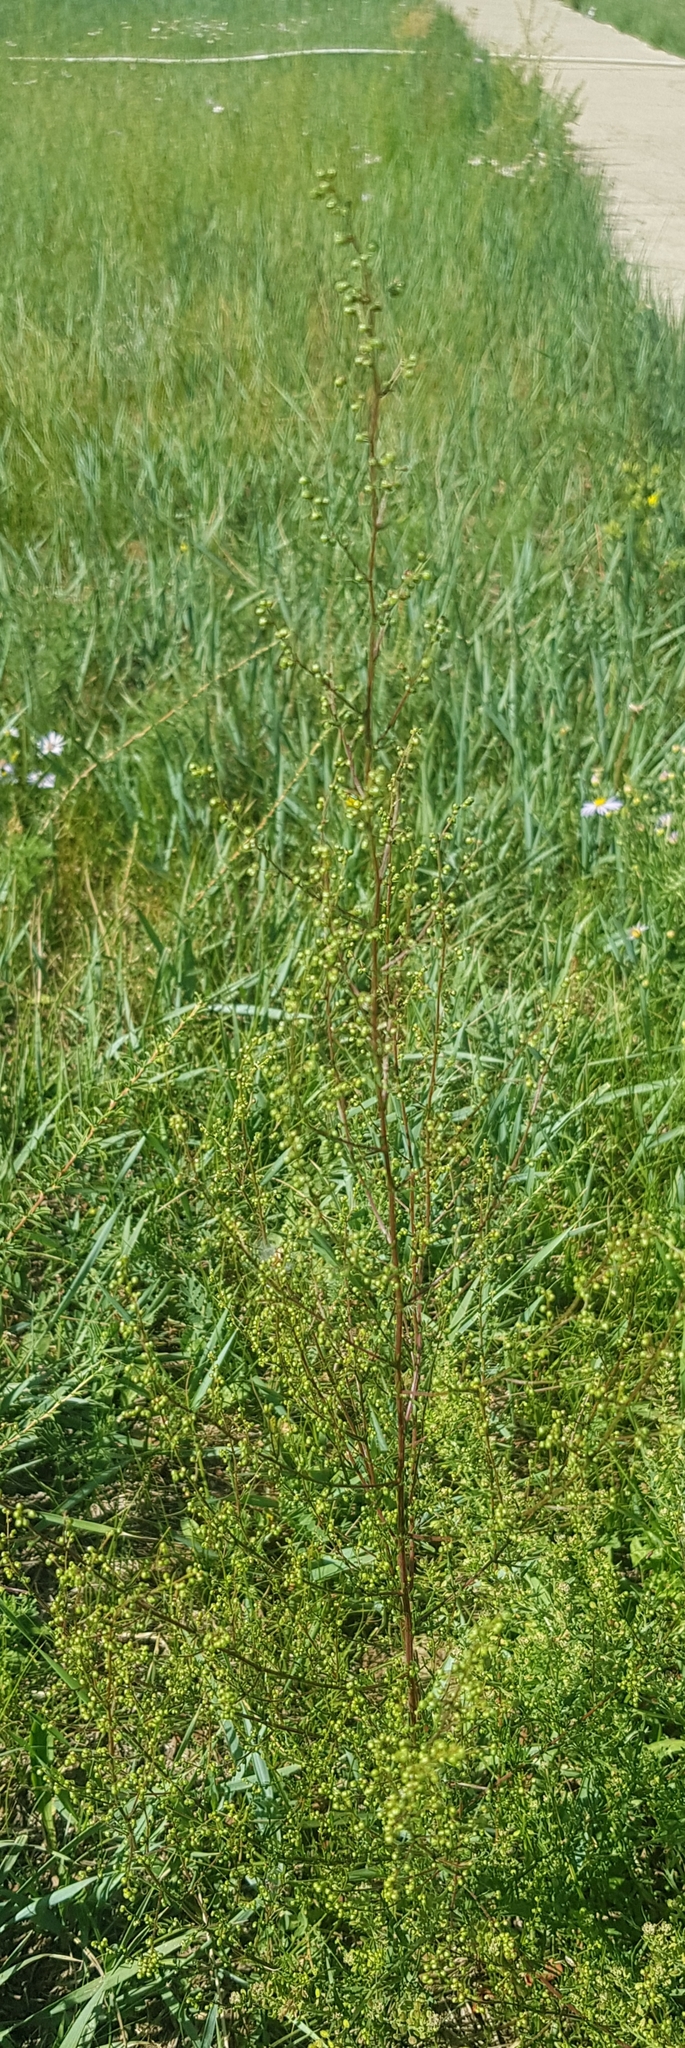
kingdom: Plantae
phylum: Tracheophyta
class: Magnoliopsida
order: Asterales
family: Asteraceae
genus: Artemisia
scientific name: Artemisia scoparia
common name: Redstem wormwood
